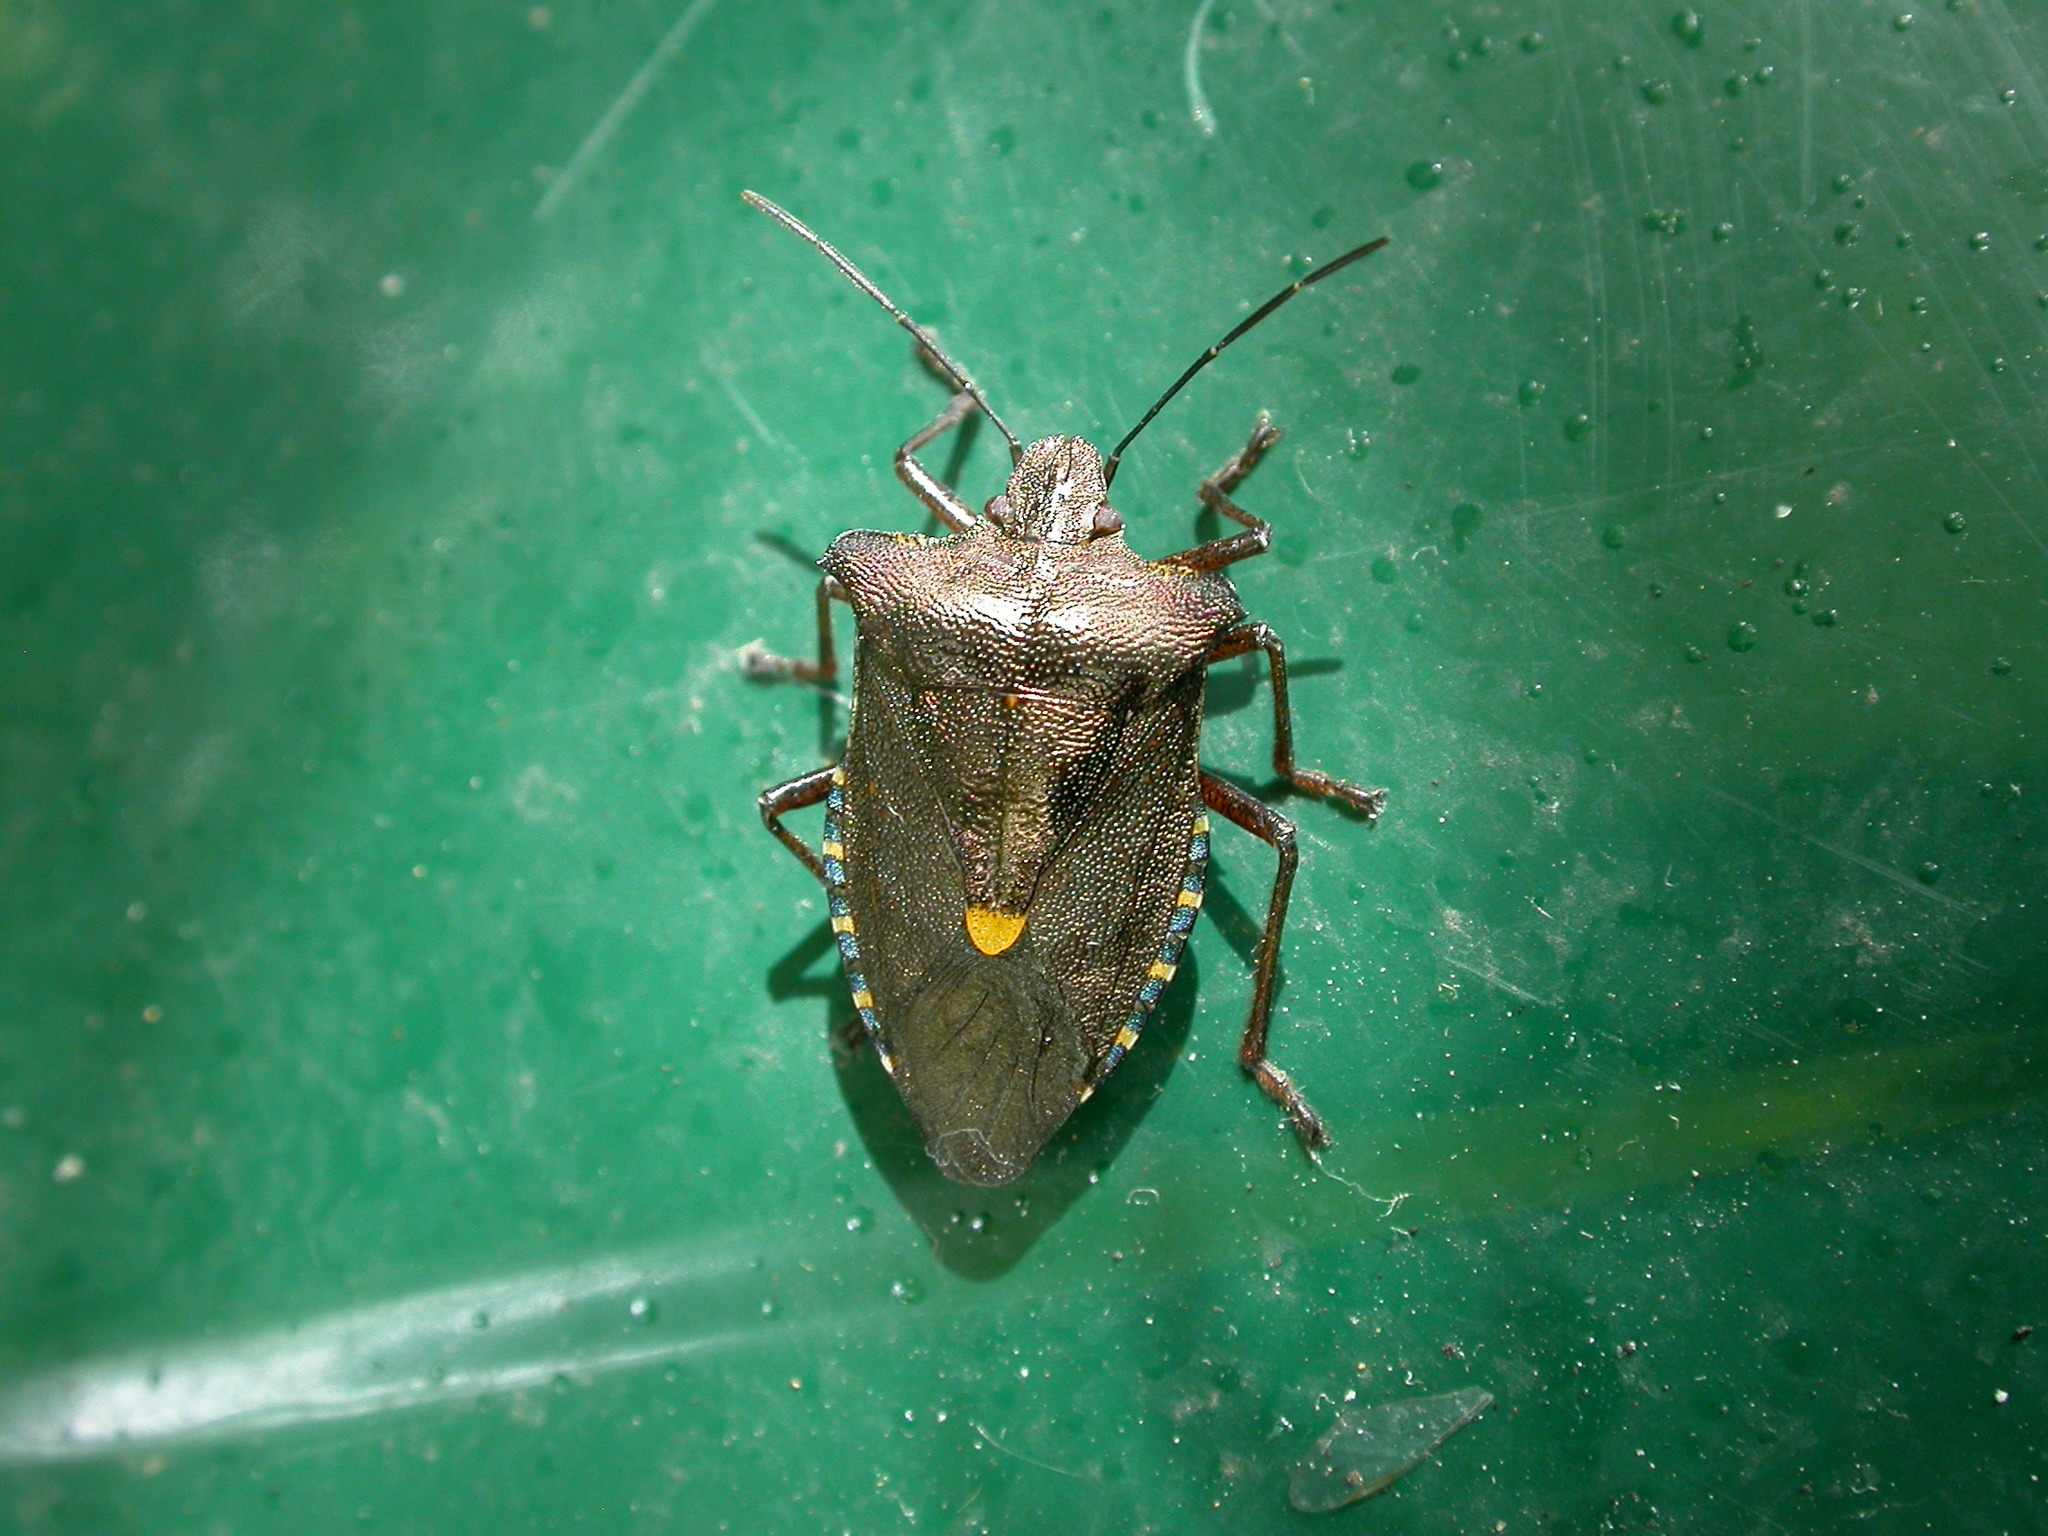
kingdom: Animalia
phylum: Arthropoda
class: Insecta
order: Hemiptera
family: Pentatomidae
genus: Pentatoma
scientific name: Pentatoma rufipes
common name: Forest bug
